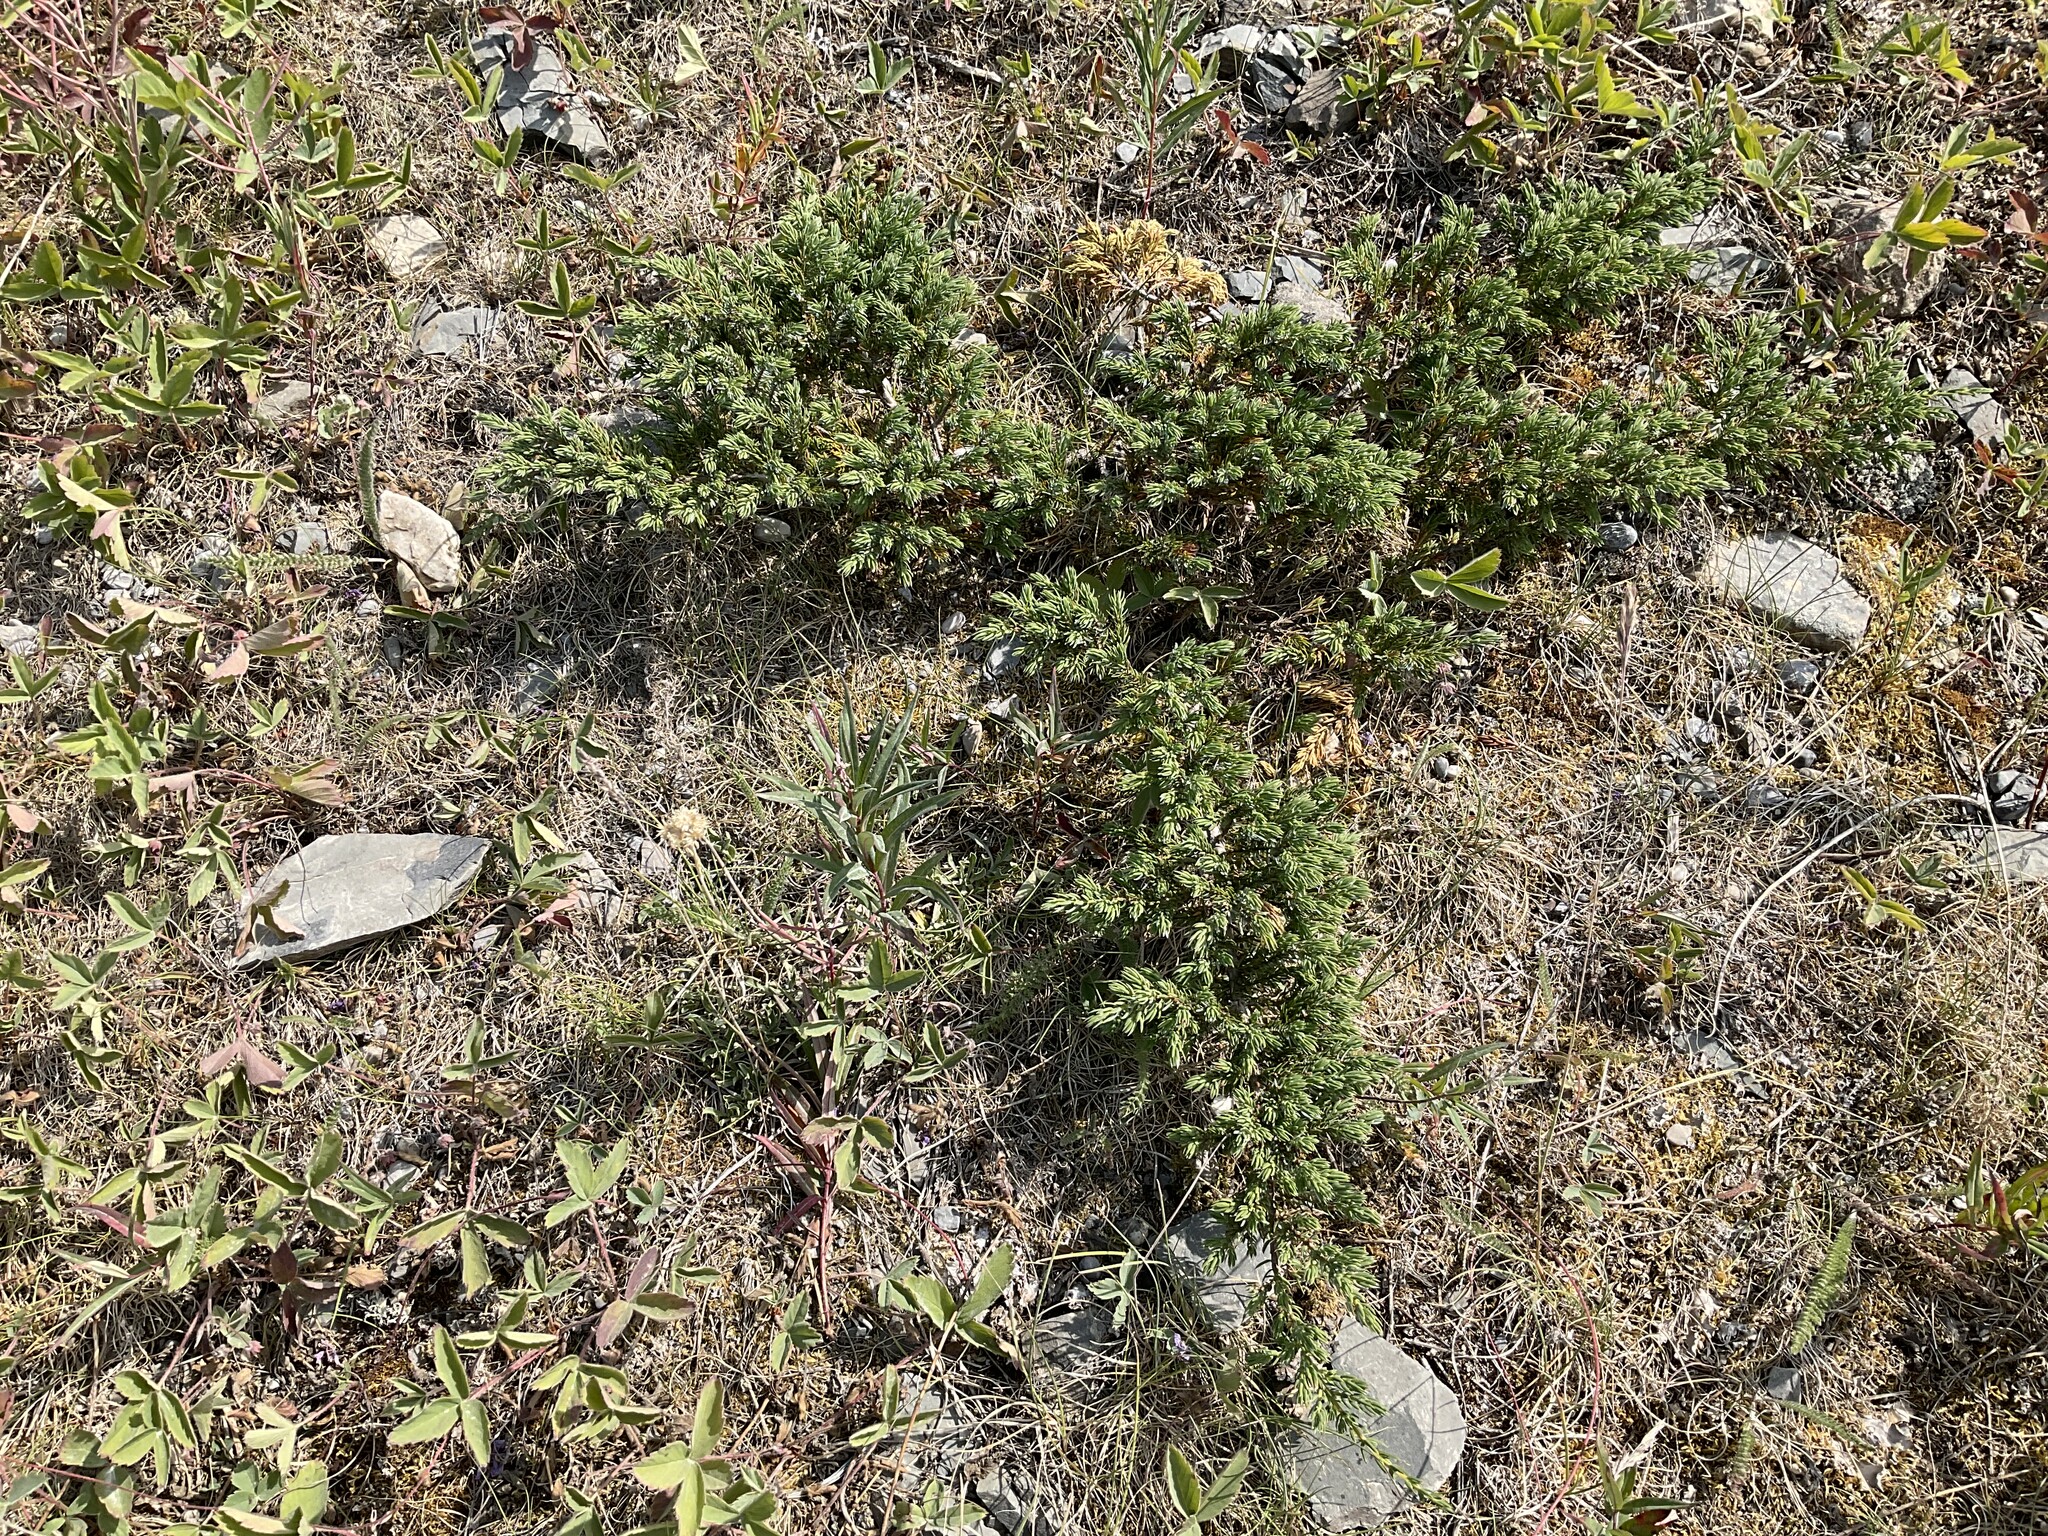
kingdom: Plantae
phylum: Tracheophyta
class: Pinopsida
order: Pinales
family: Cupressaceae
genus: Juniperus
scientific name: Juniperus communis
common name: Common juniper
